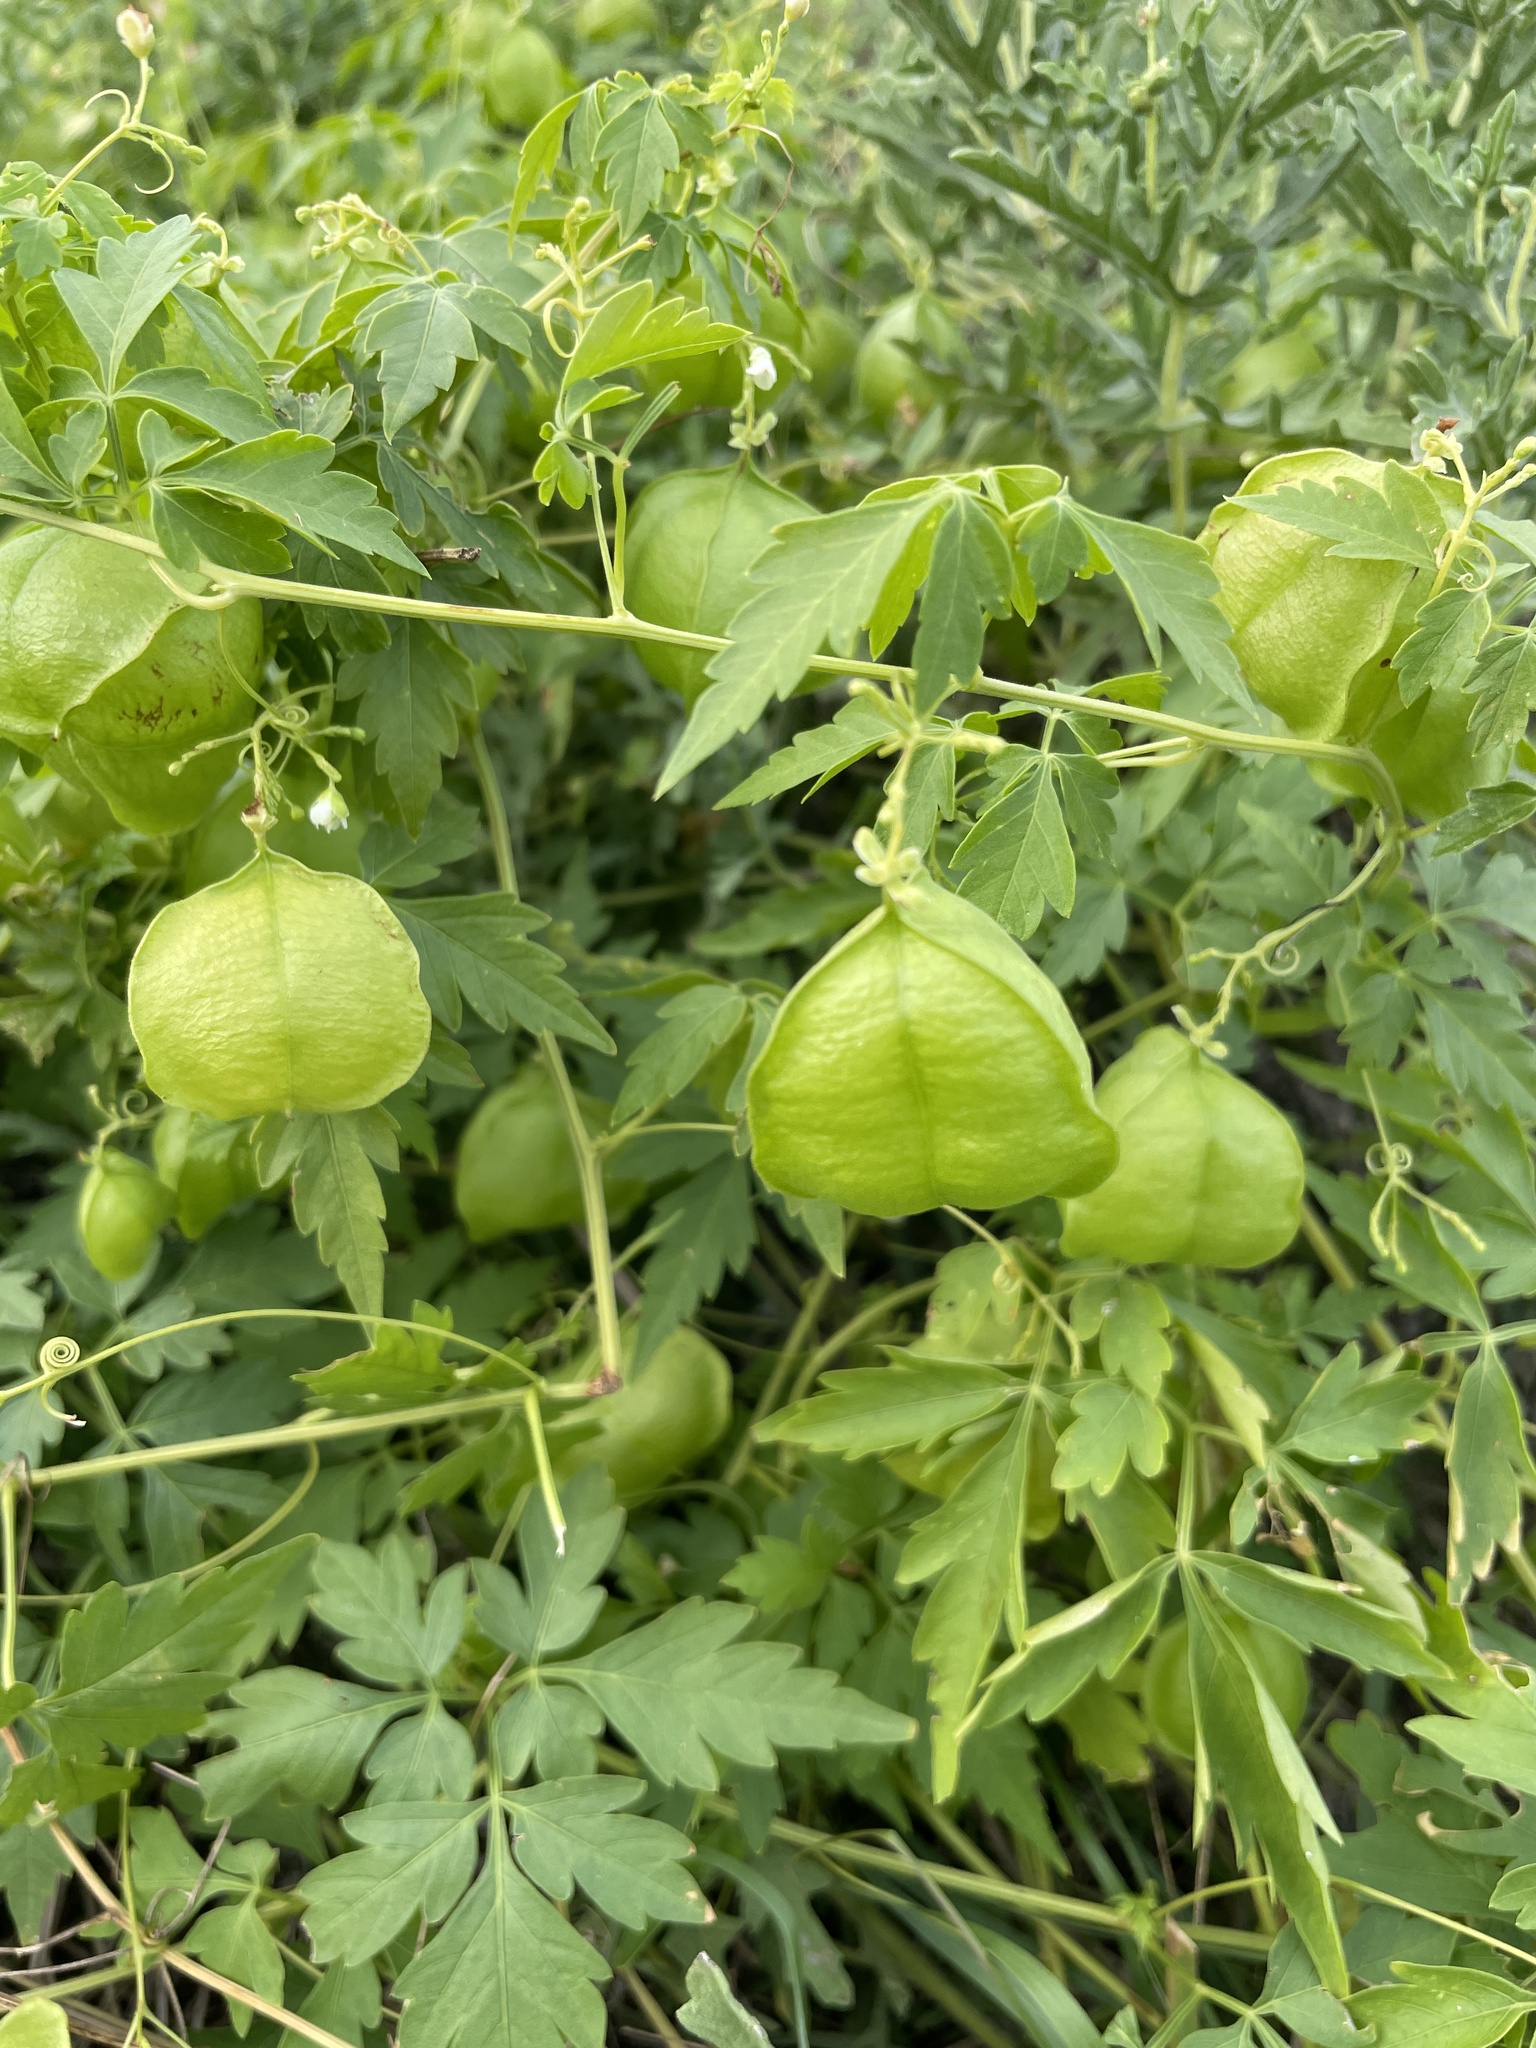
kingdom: Plantae
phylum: Tracheophyta
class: Magnoliopsida
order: Sapindales
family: Sapindaceae
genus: Cardiospermum
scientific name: Cardiospermum halicacabum
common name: Balloon vine
